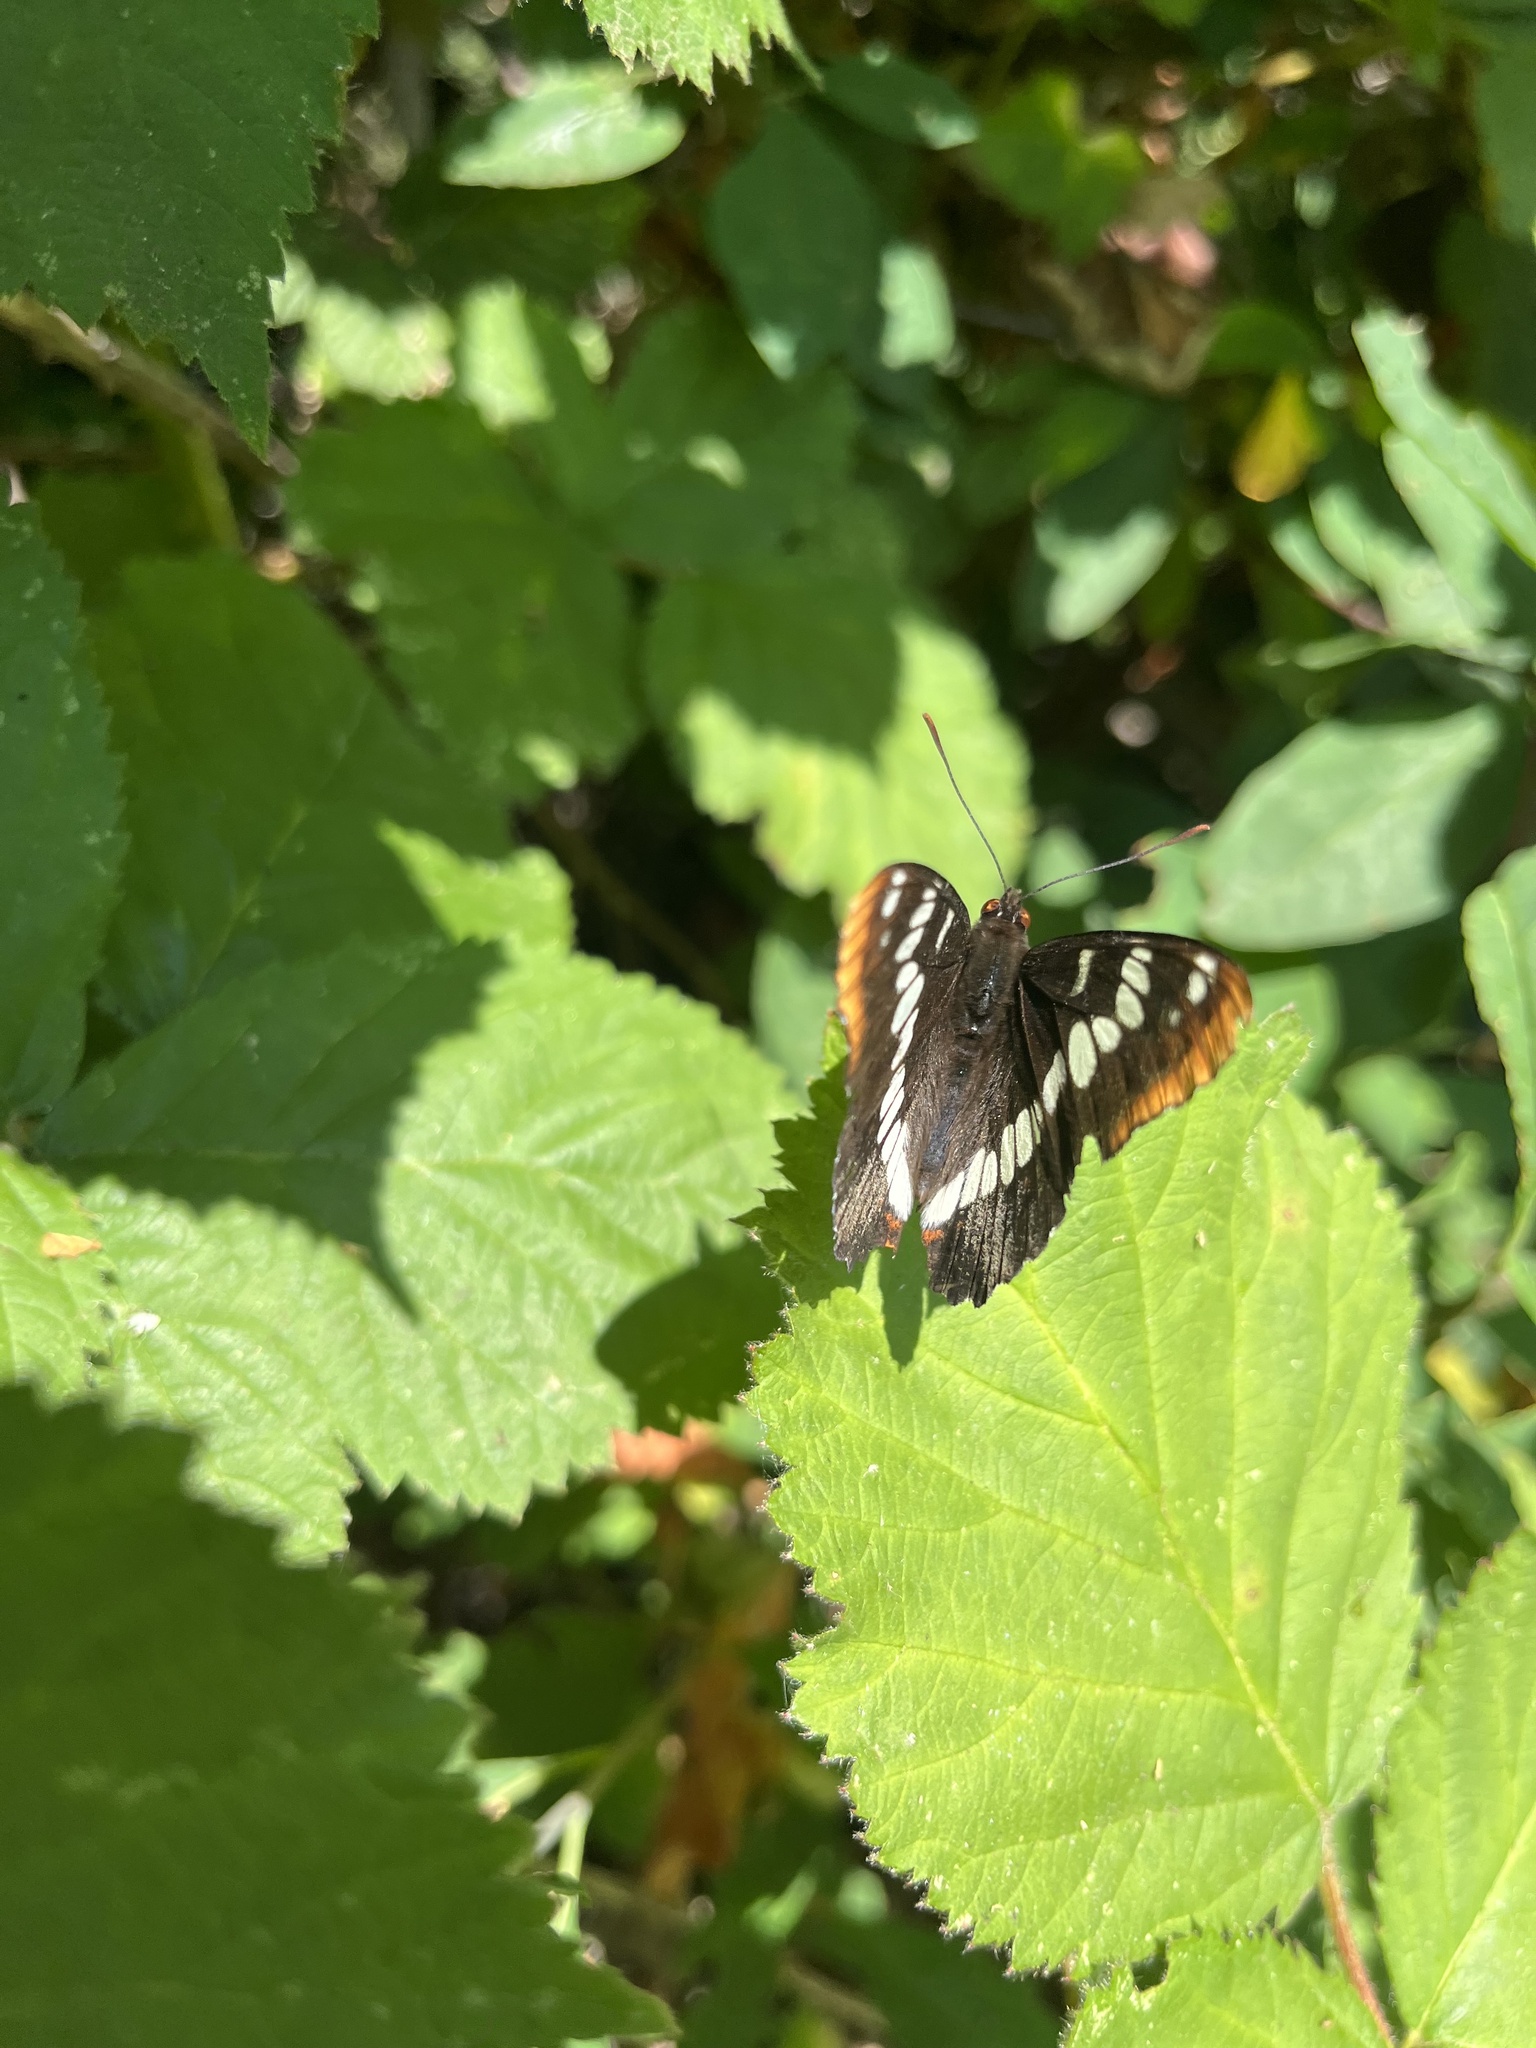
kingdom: Animalia
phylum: Arthropoda
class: Insecta
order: Lepidoptera
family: Nymphalidae
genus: Limenitis
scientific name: Limenitis lorquini
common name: Lorquin's admiral
